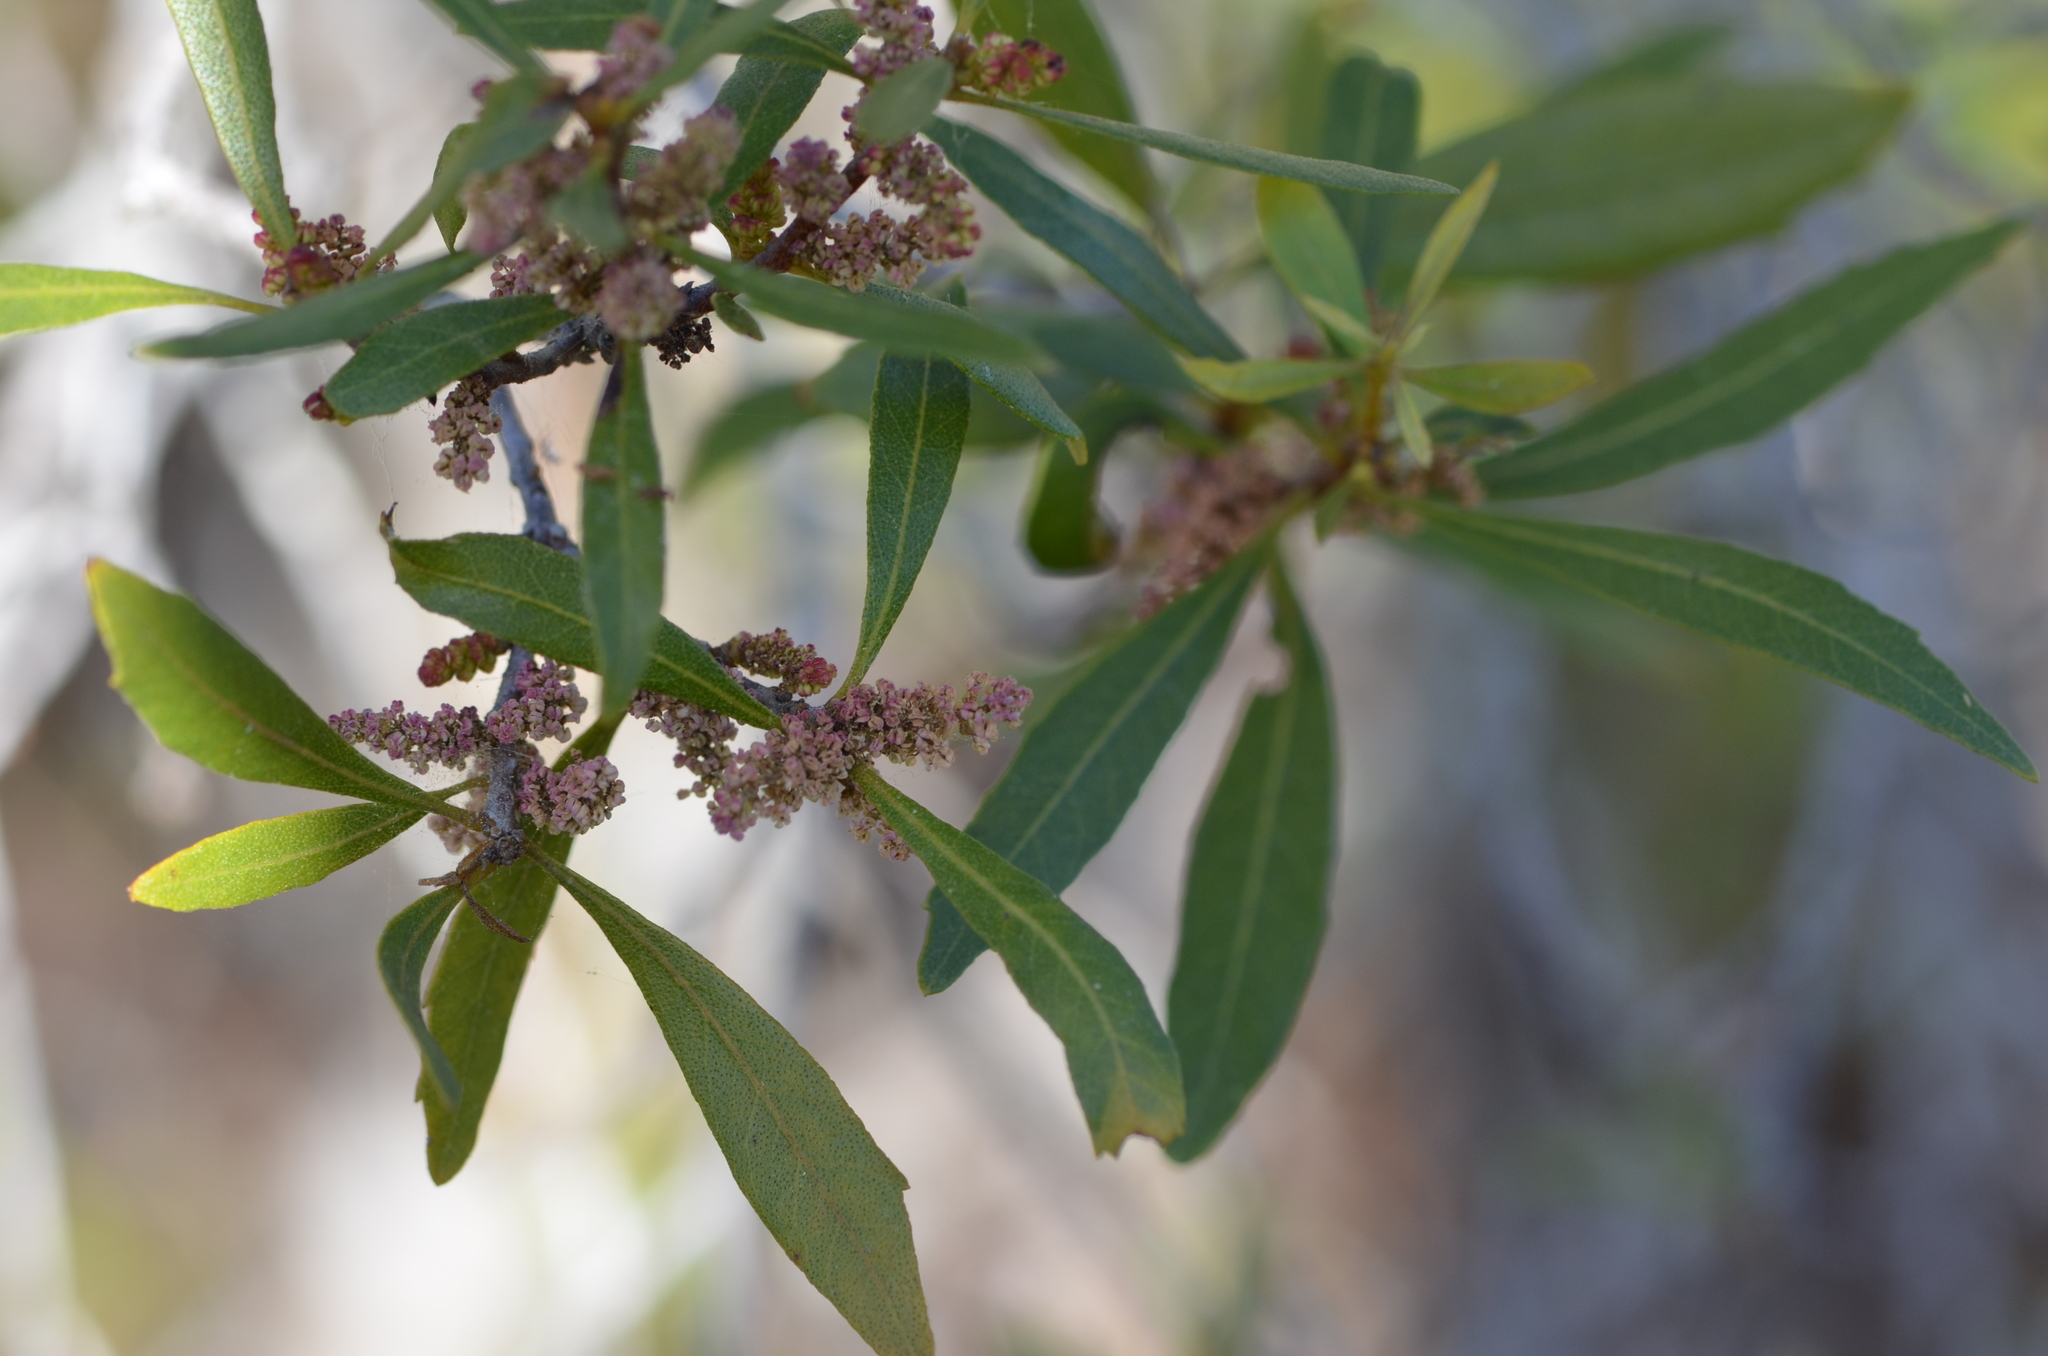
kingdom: Plantae
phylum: Tracheophyta
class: Magnoliopsida
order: Fagales
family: Myricaceae
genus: Morella
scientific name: Morella cerifera
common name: Wax myrtle
